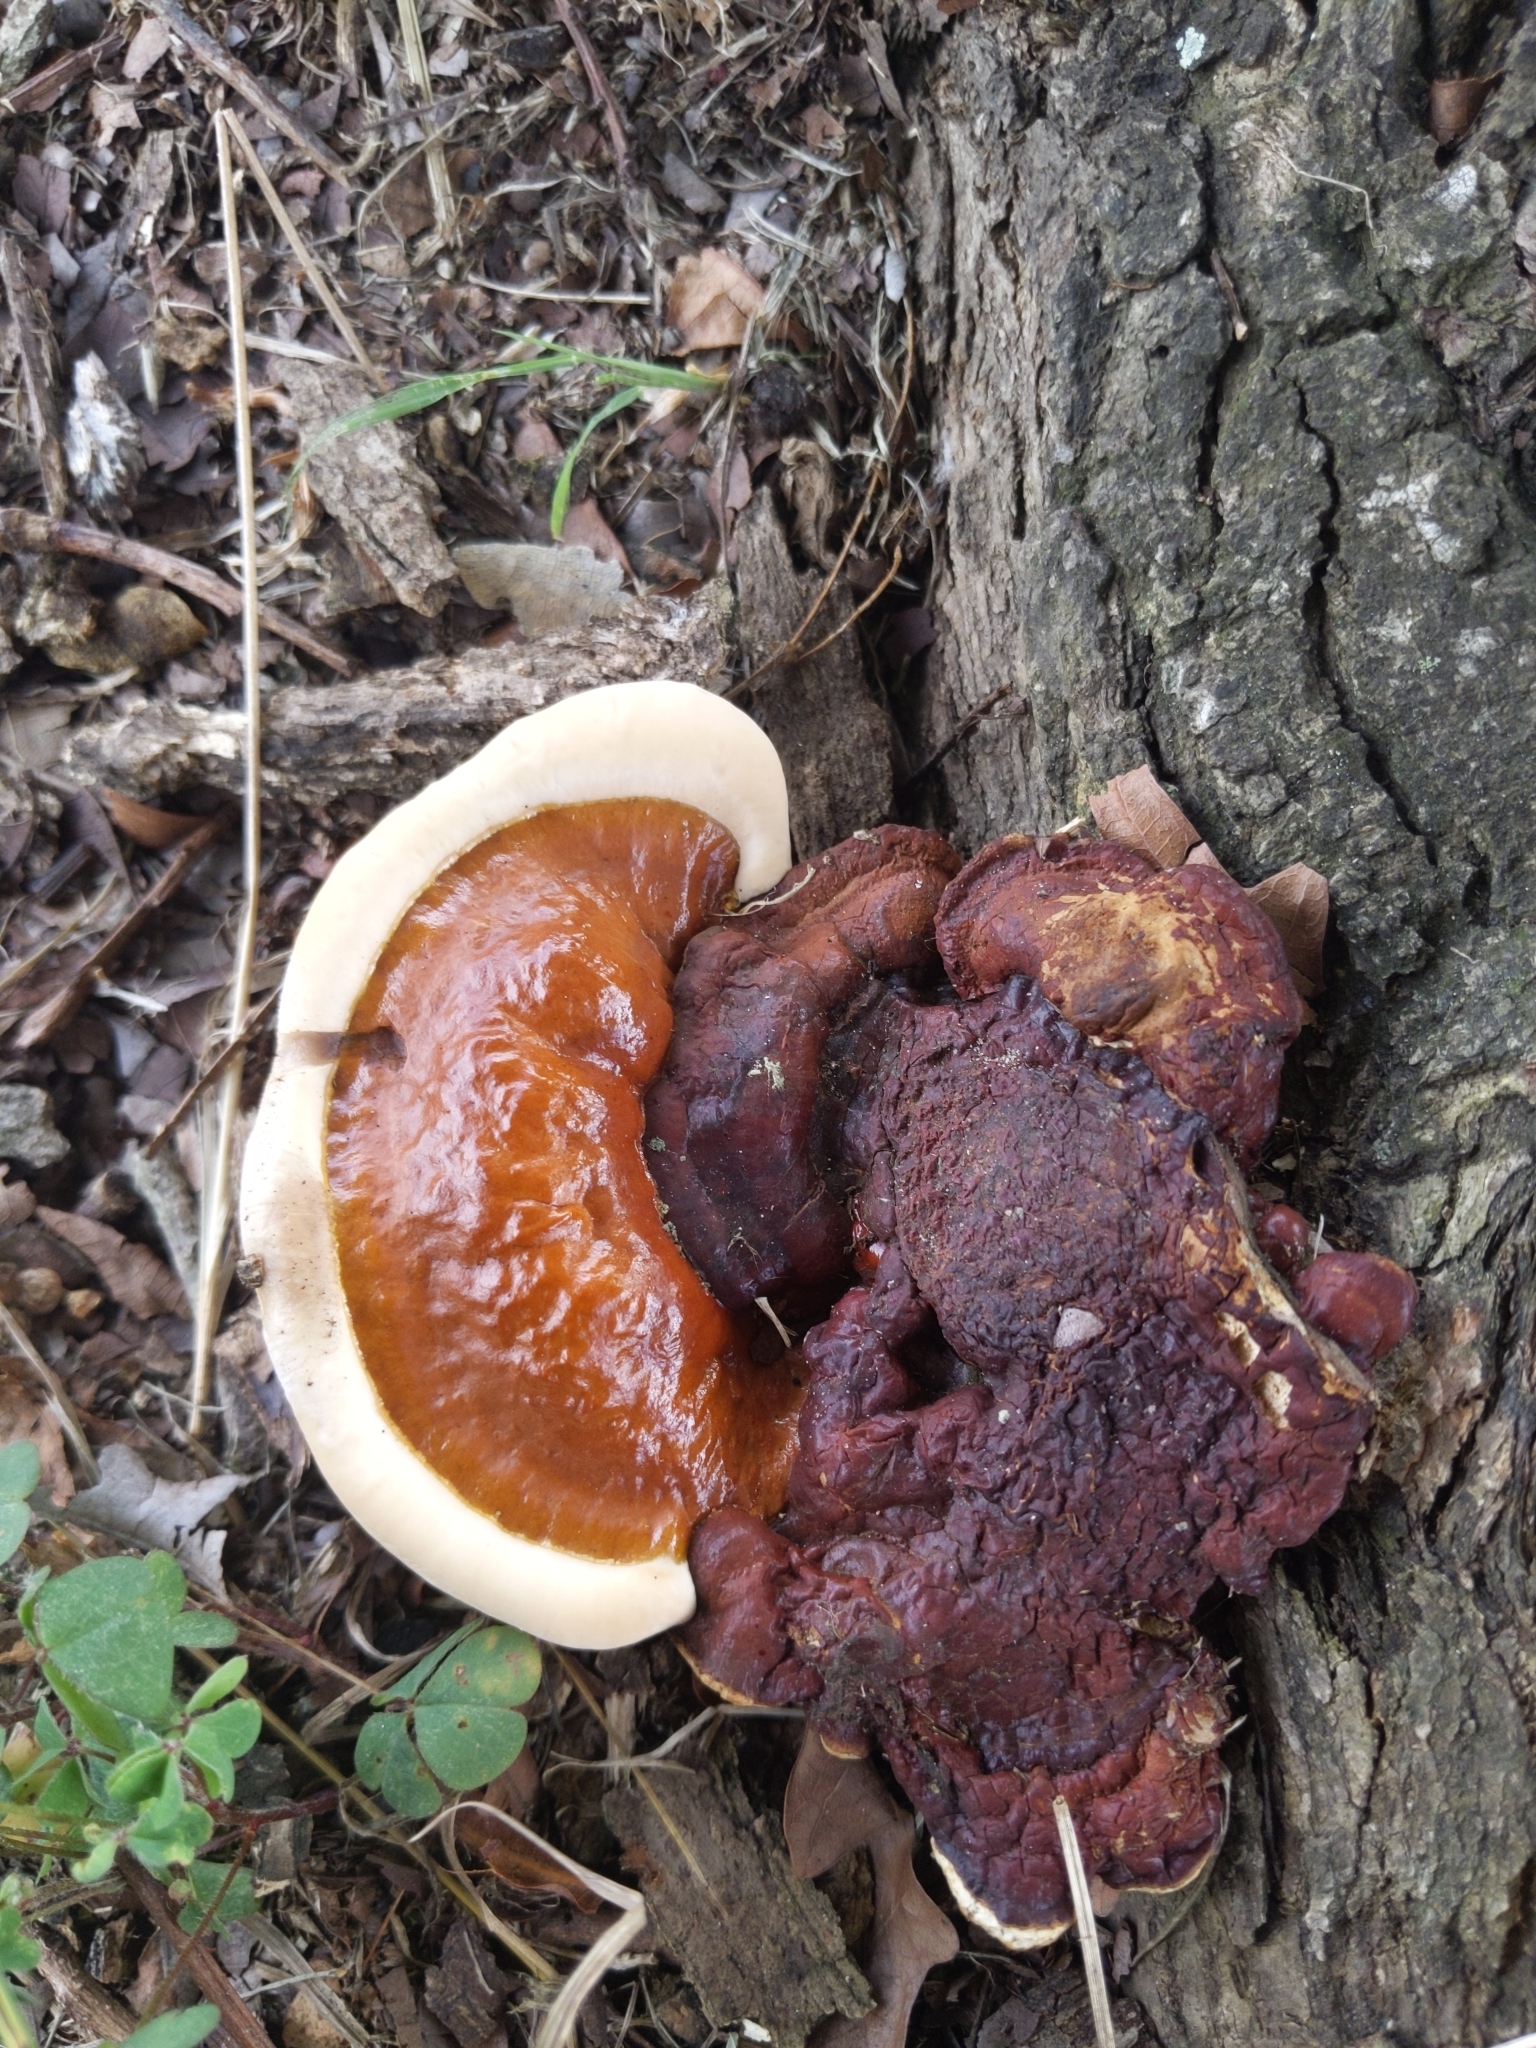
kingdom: Fungi
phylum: Basidiomycota
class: Agaricomycetes
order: Polyporales
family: Polyporaceae
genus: Ganoderma
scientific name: Ganoderma resinaceum
